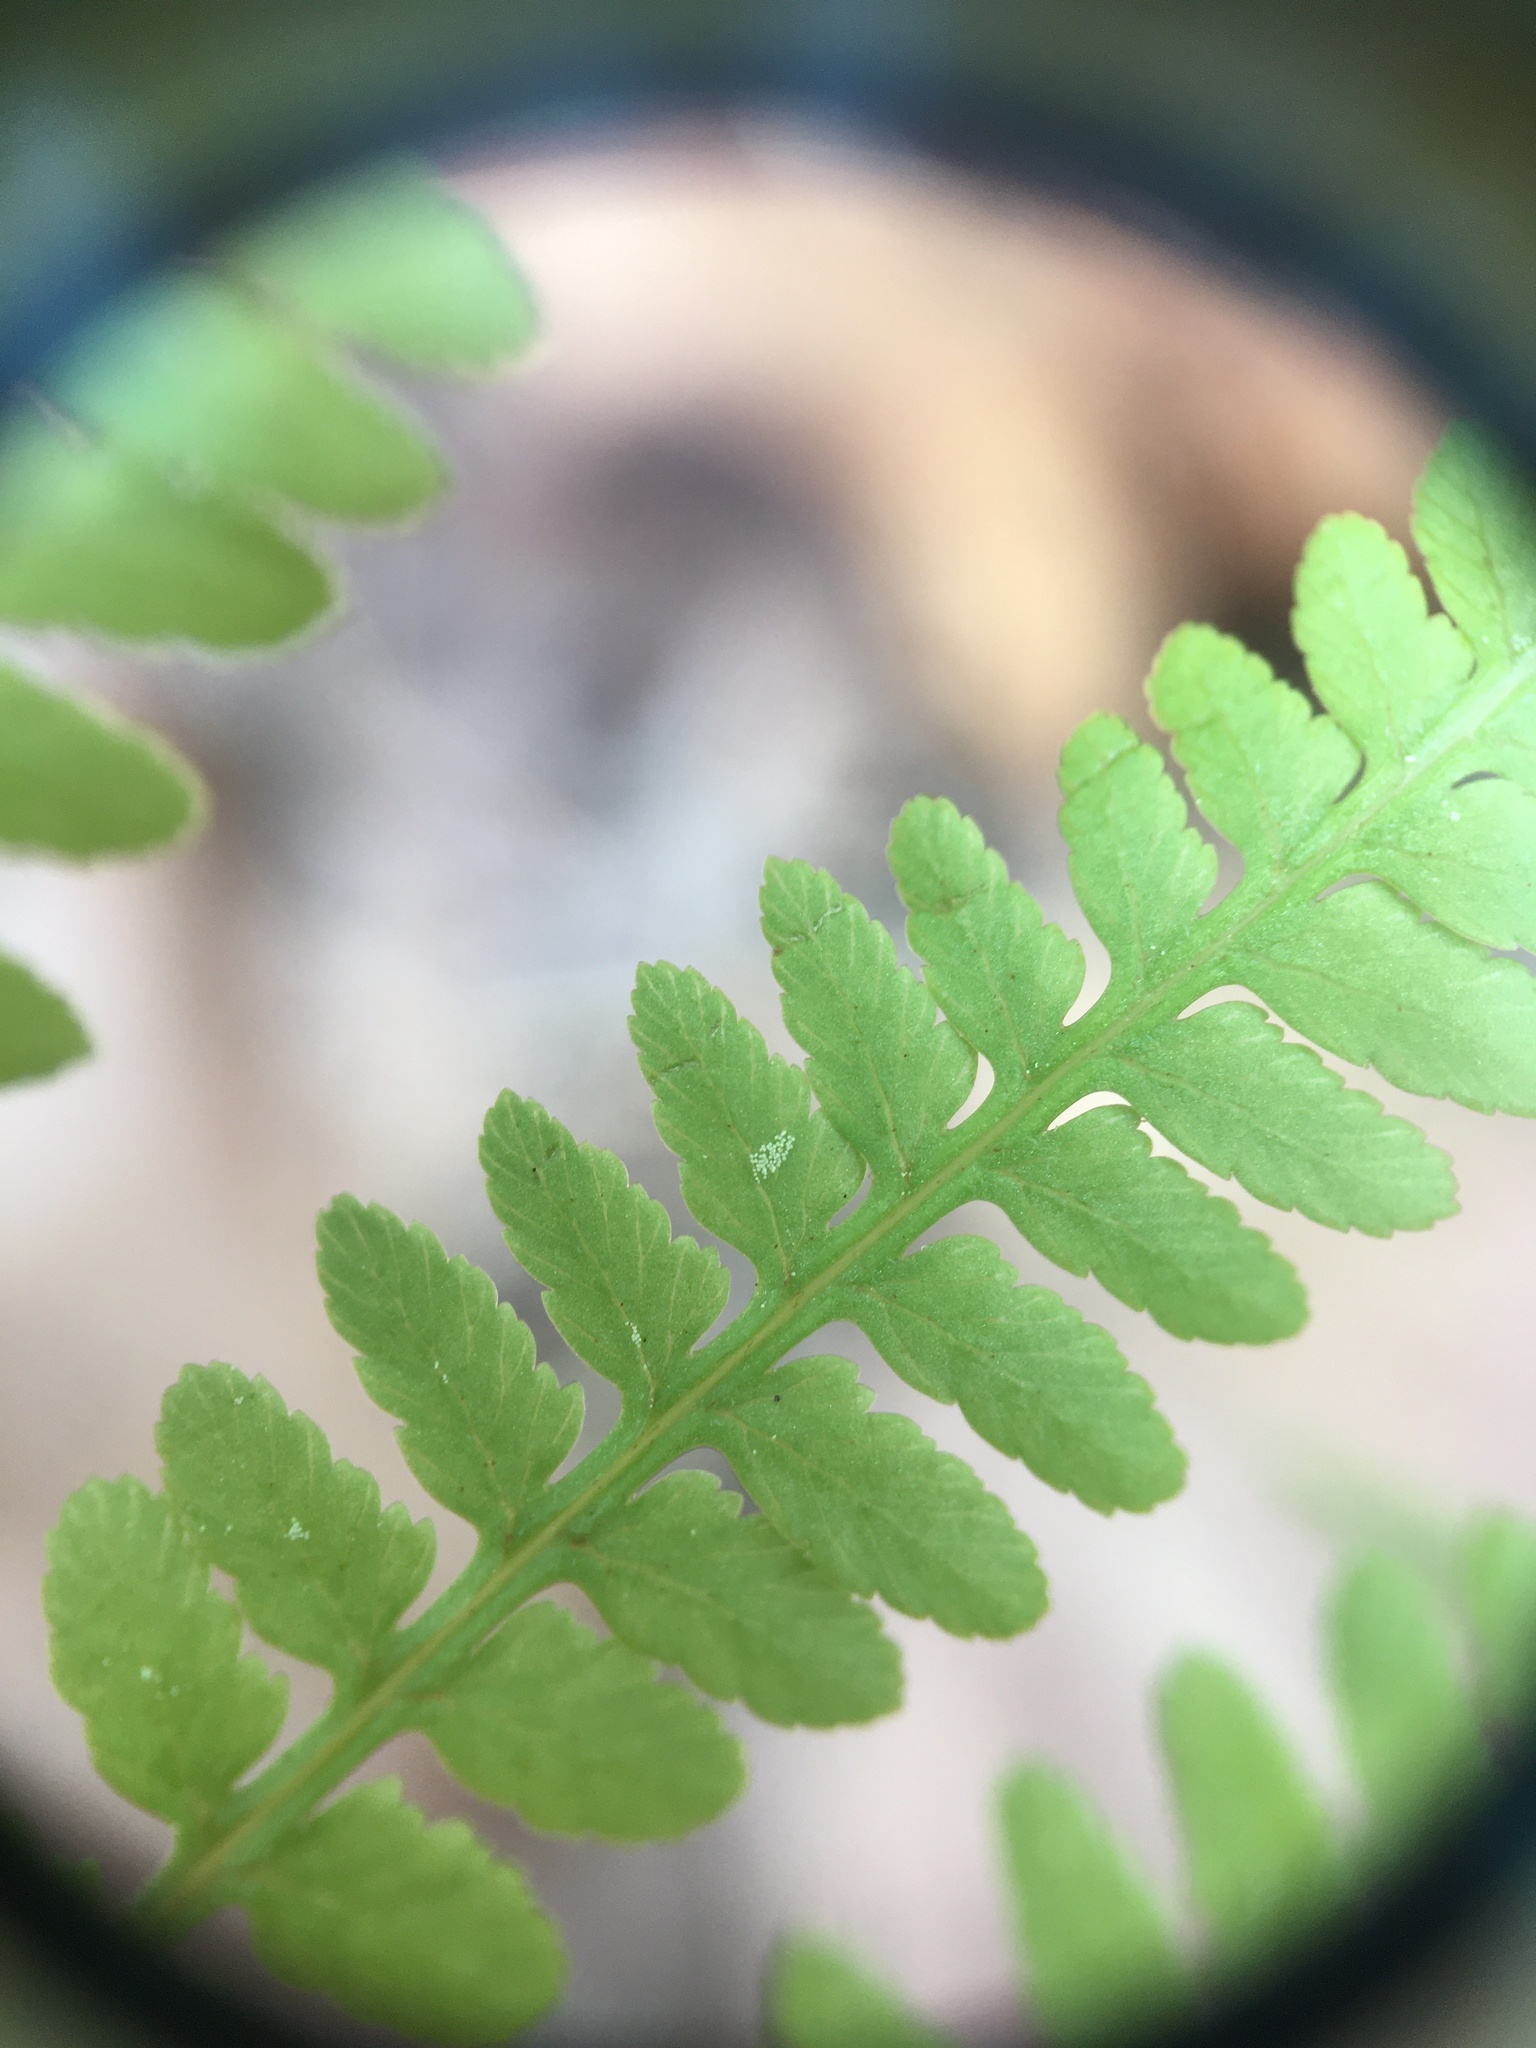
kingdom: Plantae
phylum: Tracheophyta
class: Polypodiopsida
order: Polypodiales
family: Athyriaceae
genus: Athyrium
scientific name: Athyrium asplenioides
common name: Southern lady fern
